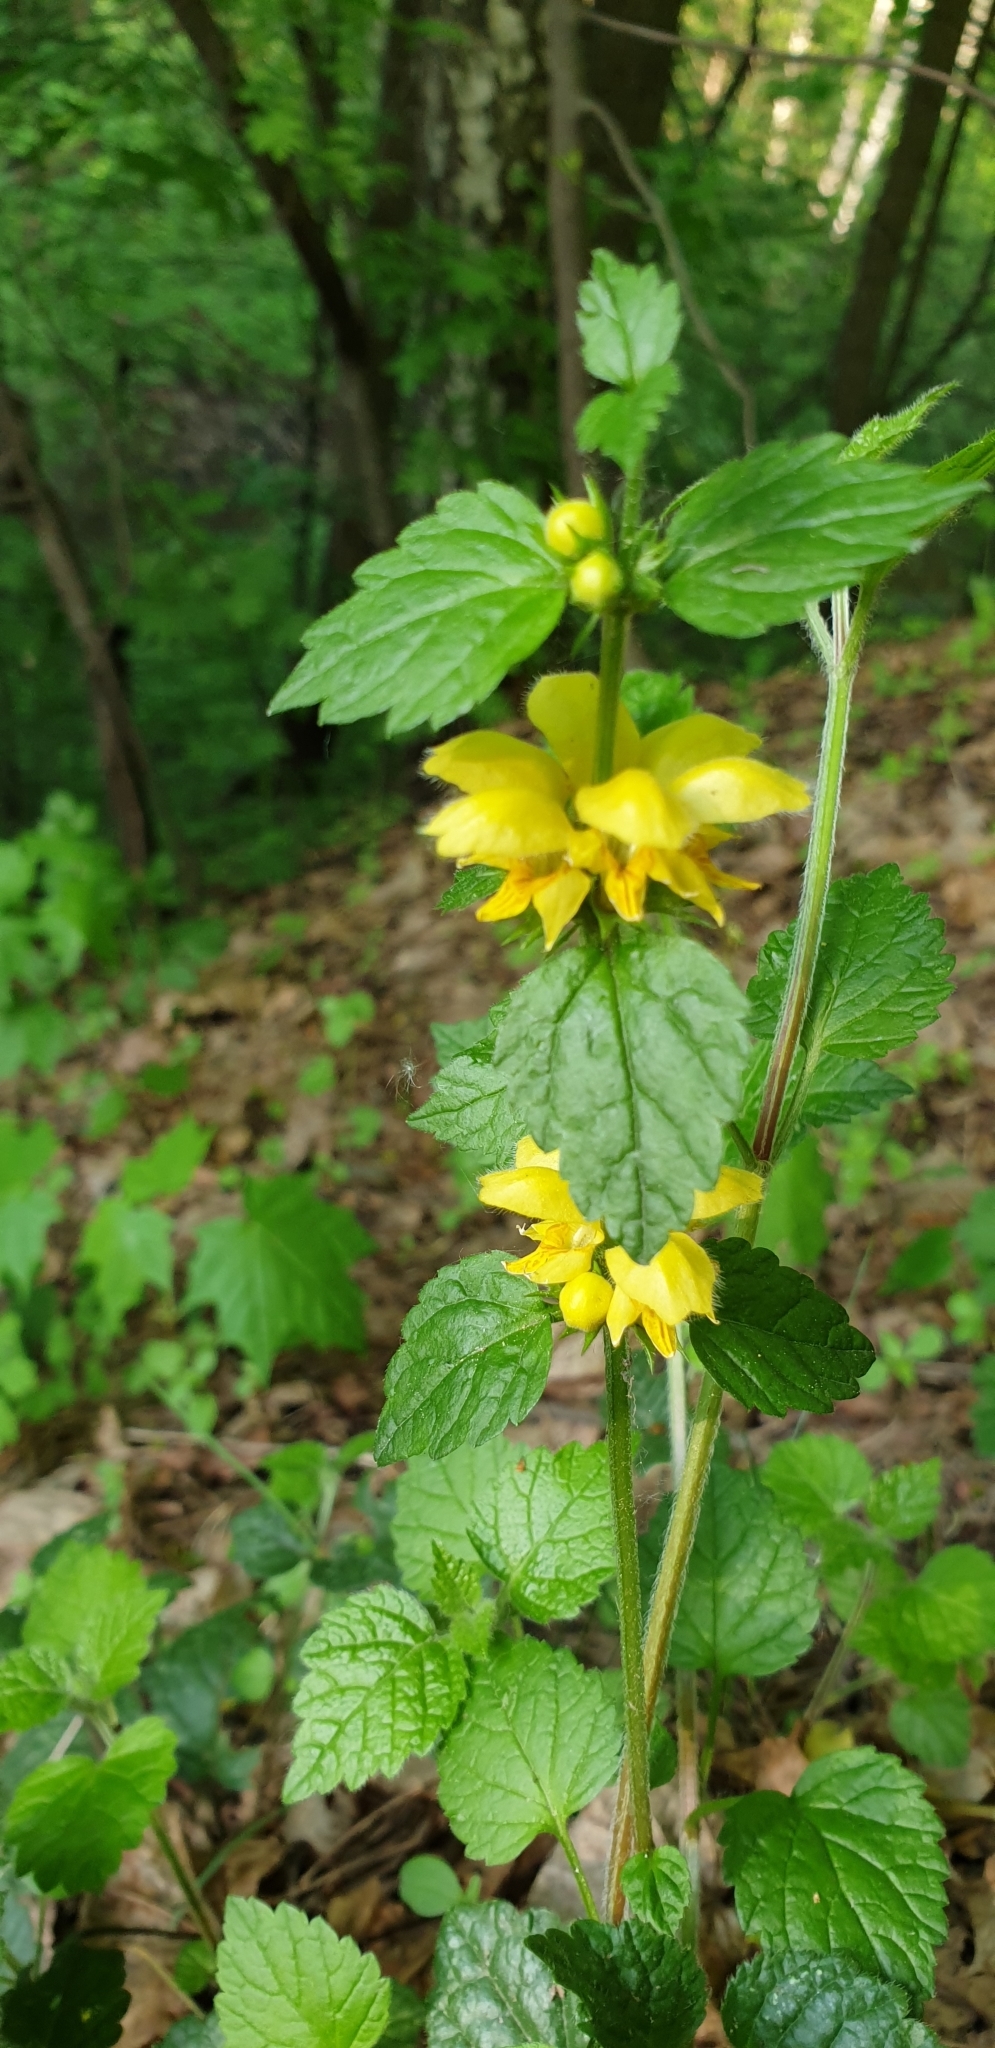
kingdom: Plantae
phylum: Tracheophyta
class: Magnoliopsida
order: Lamiales
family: Lamiaceae
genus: Lamium
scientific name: Lamium galeobdolon
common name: Yellow archangel
